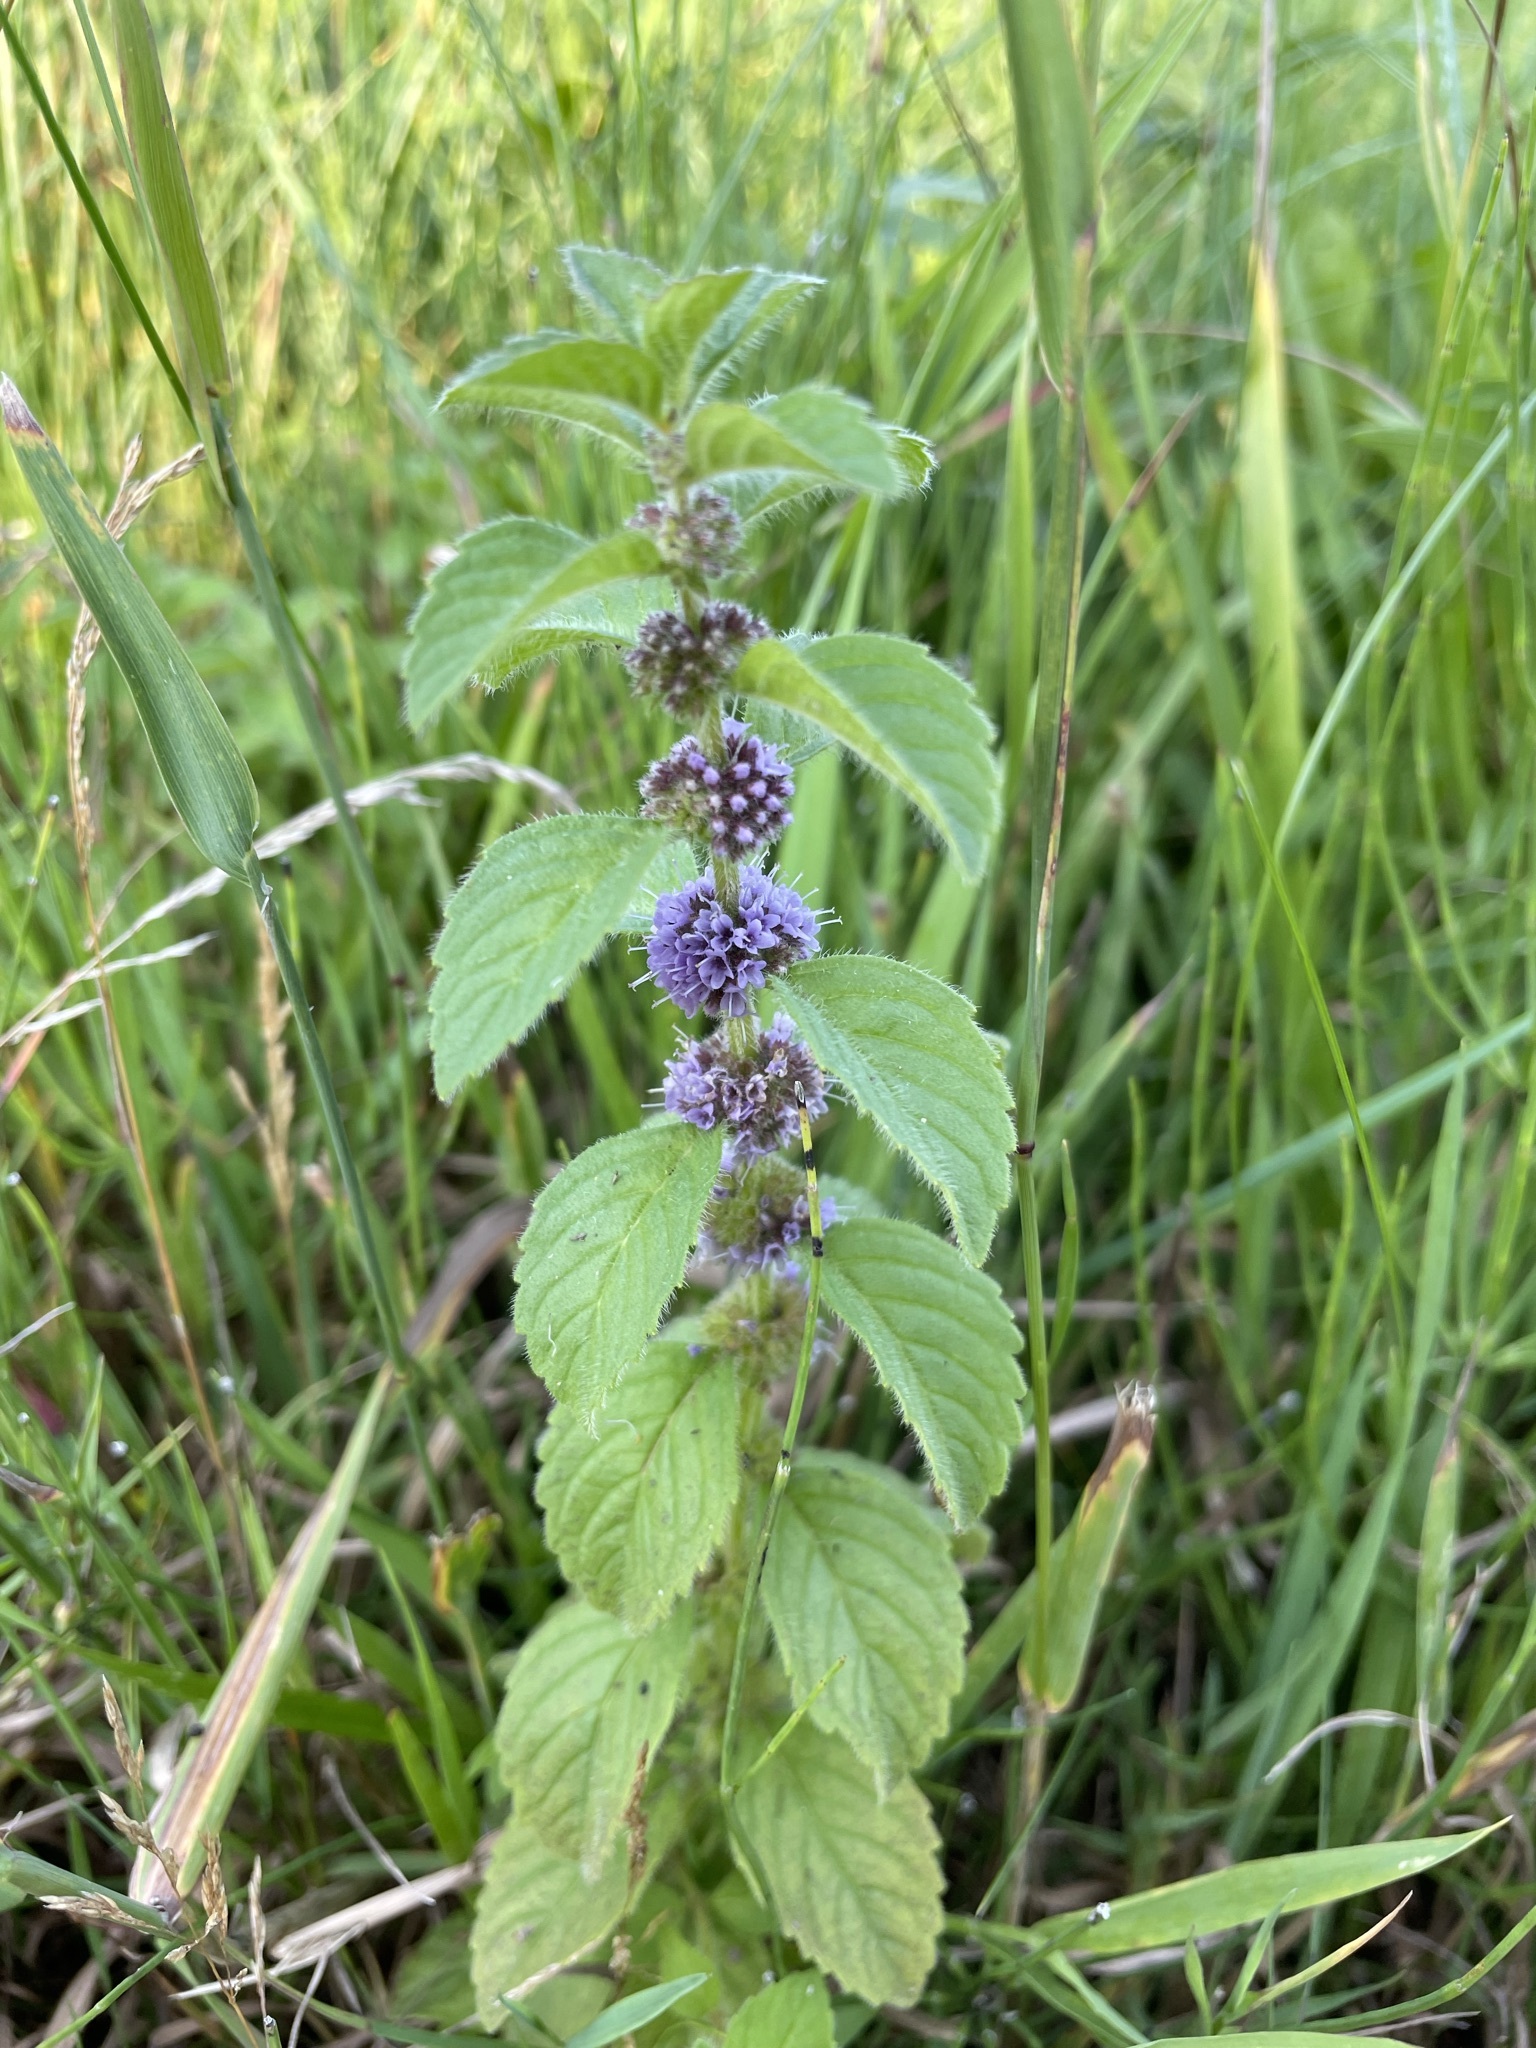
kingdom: Plantae
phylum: Tracheophyta
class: Magnoliopsida
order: Lamiales
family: Lamiaceae
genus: Mentha
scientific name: Mentha arvensis
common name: Corn mint
